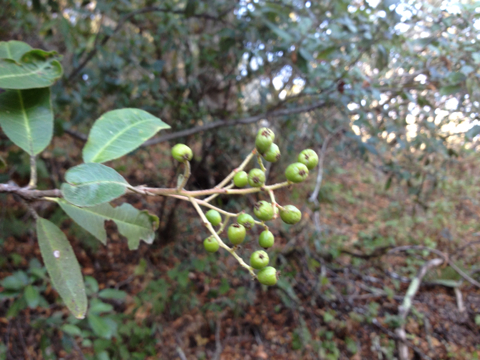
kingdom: Plantae
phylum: Tracheophyta
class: Magnoliopsida
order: Rosales
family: Rosaceae
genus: Heteromeles
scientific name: Heteromeles arbutifolia
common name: California-holly
